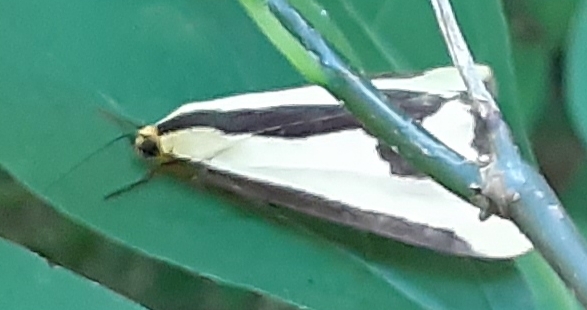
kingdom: Animalia
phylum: Arthropoda
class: Insecta
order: Lepidoptera
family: Erebidae
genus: Haploa
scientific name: Haploa clymene
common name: Clymene moth
